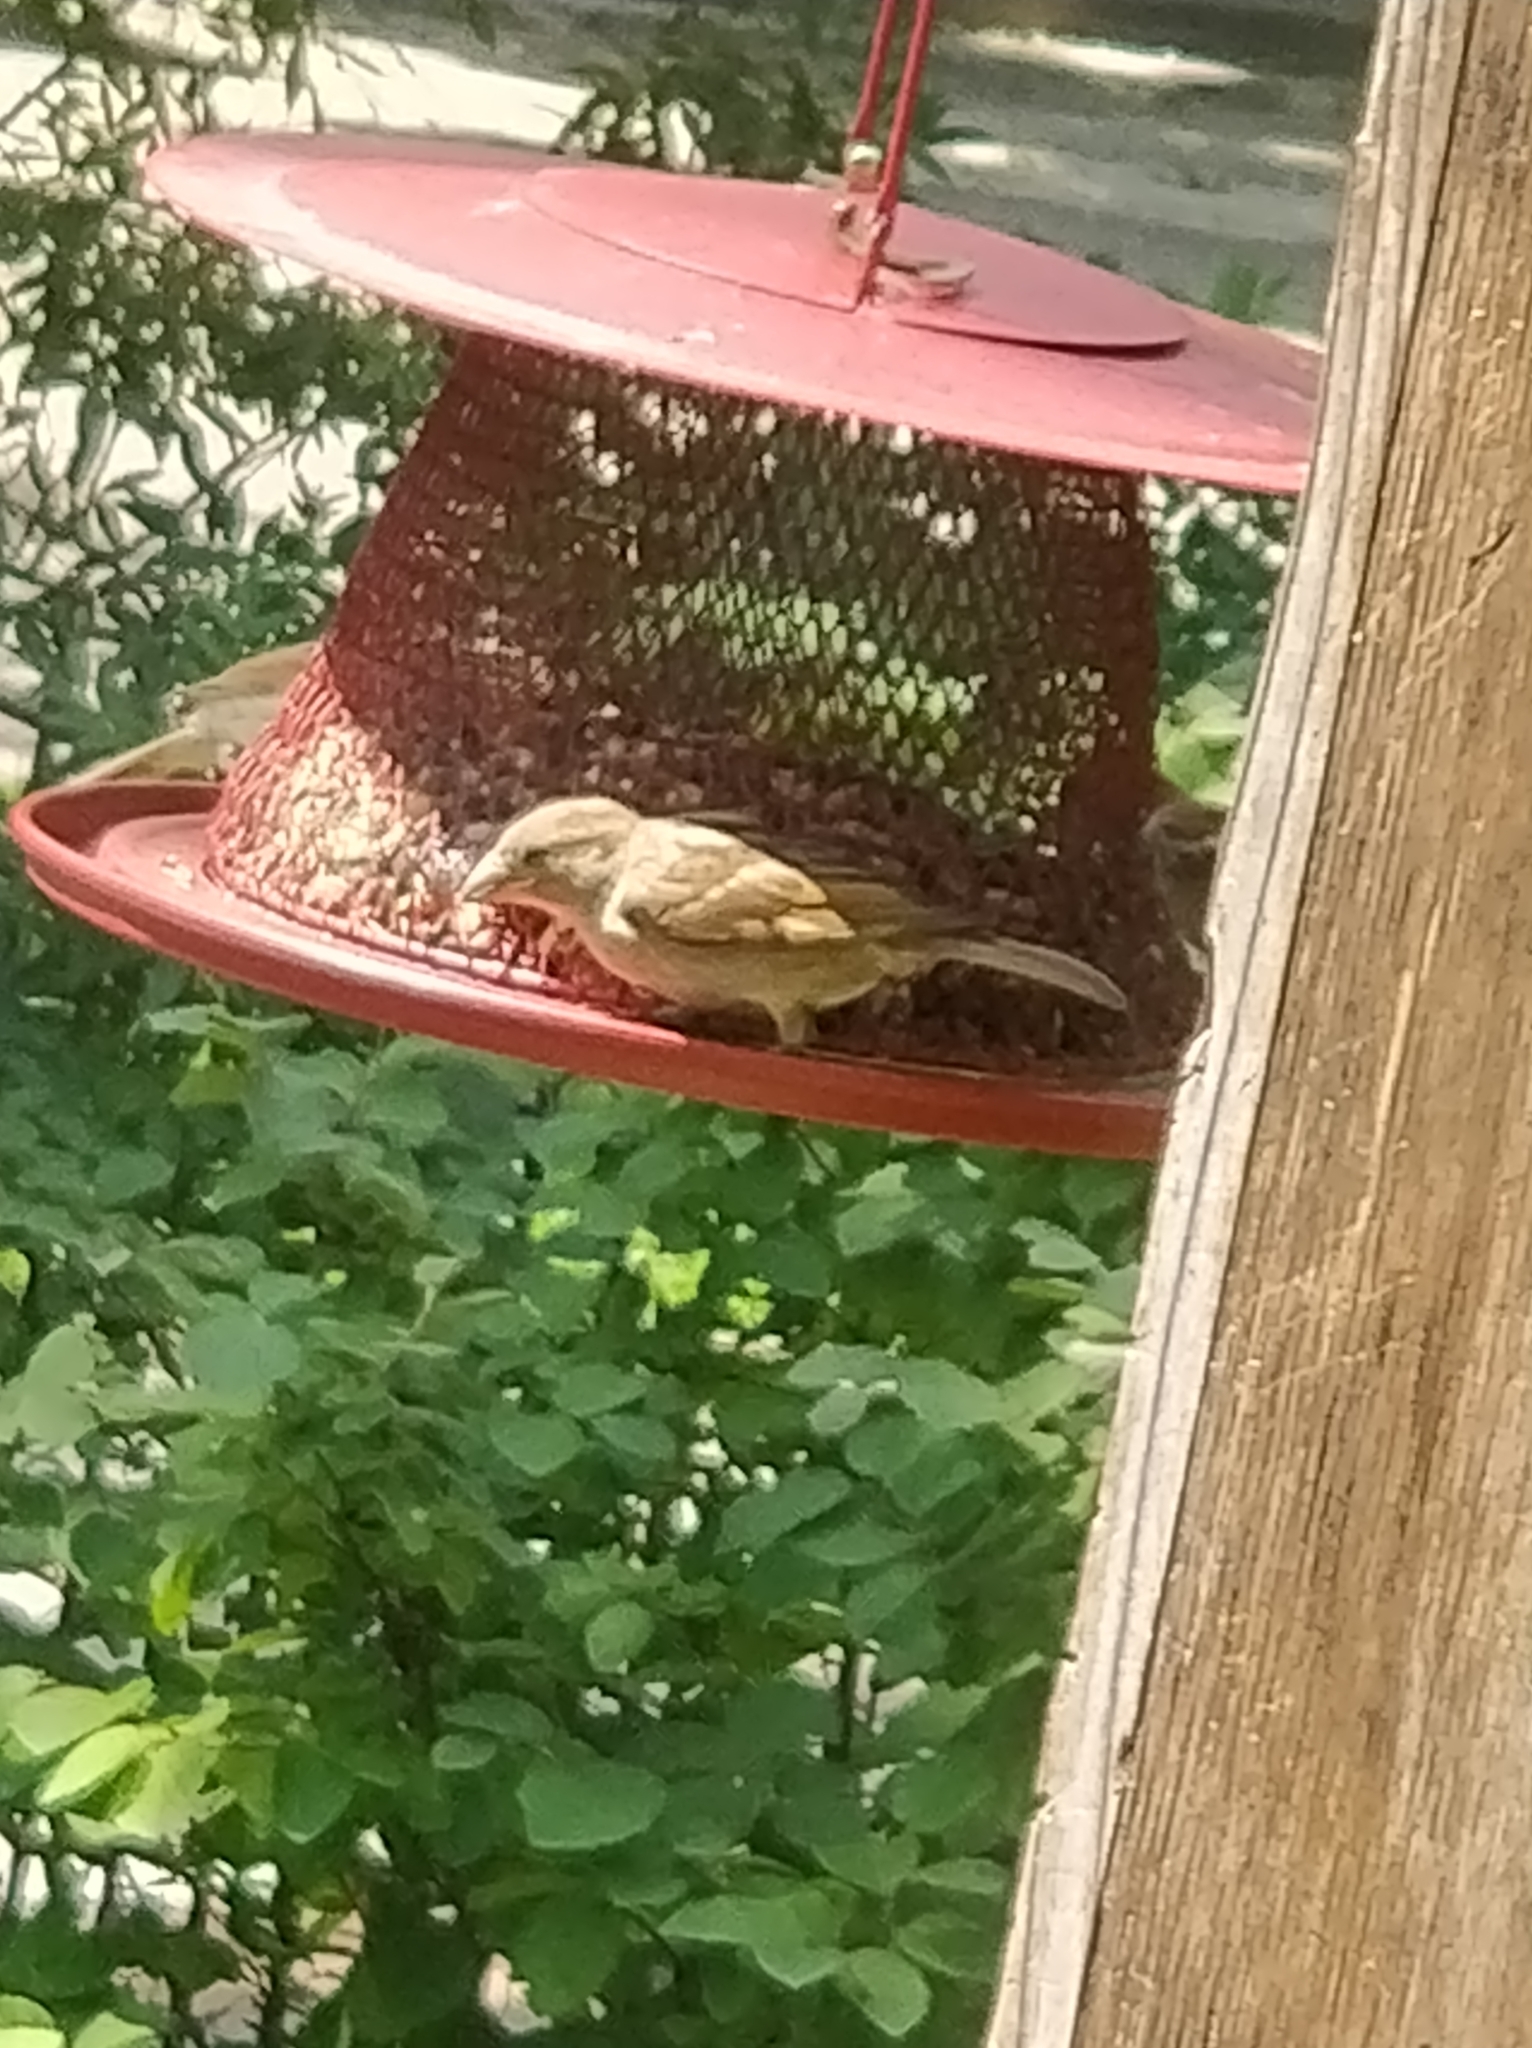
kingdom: Animalia
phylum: Chordata
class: Aves
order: Passeriformes
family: Passeridae
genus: Passer
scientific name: Passer domesticus
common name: House sparrow
